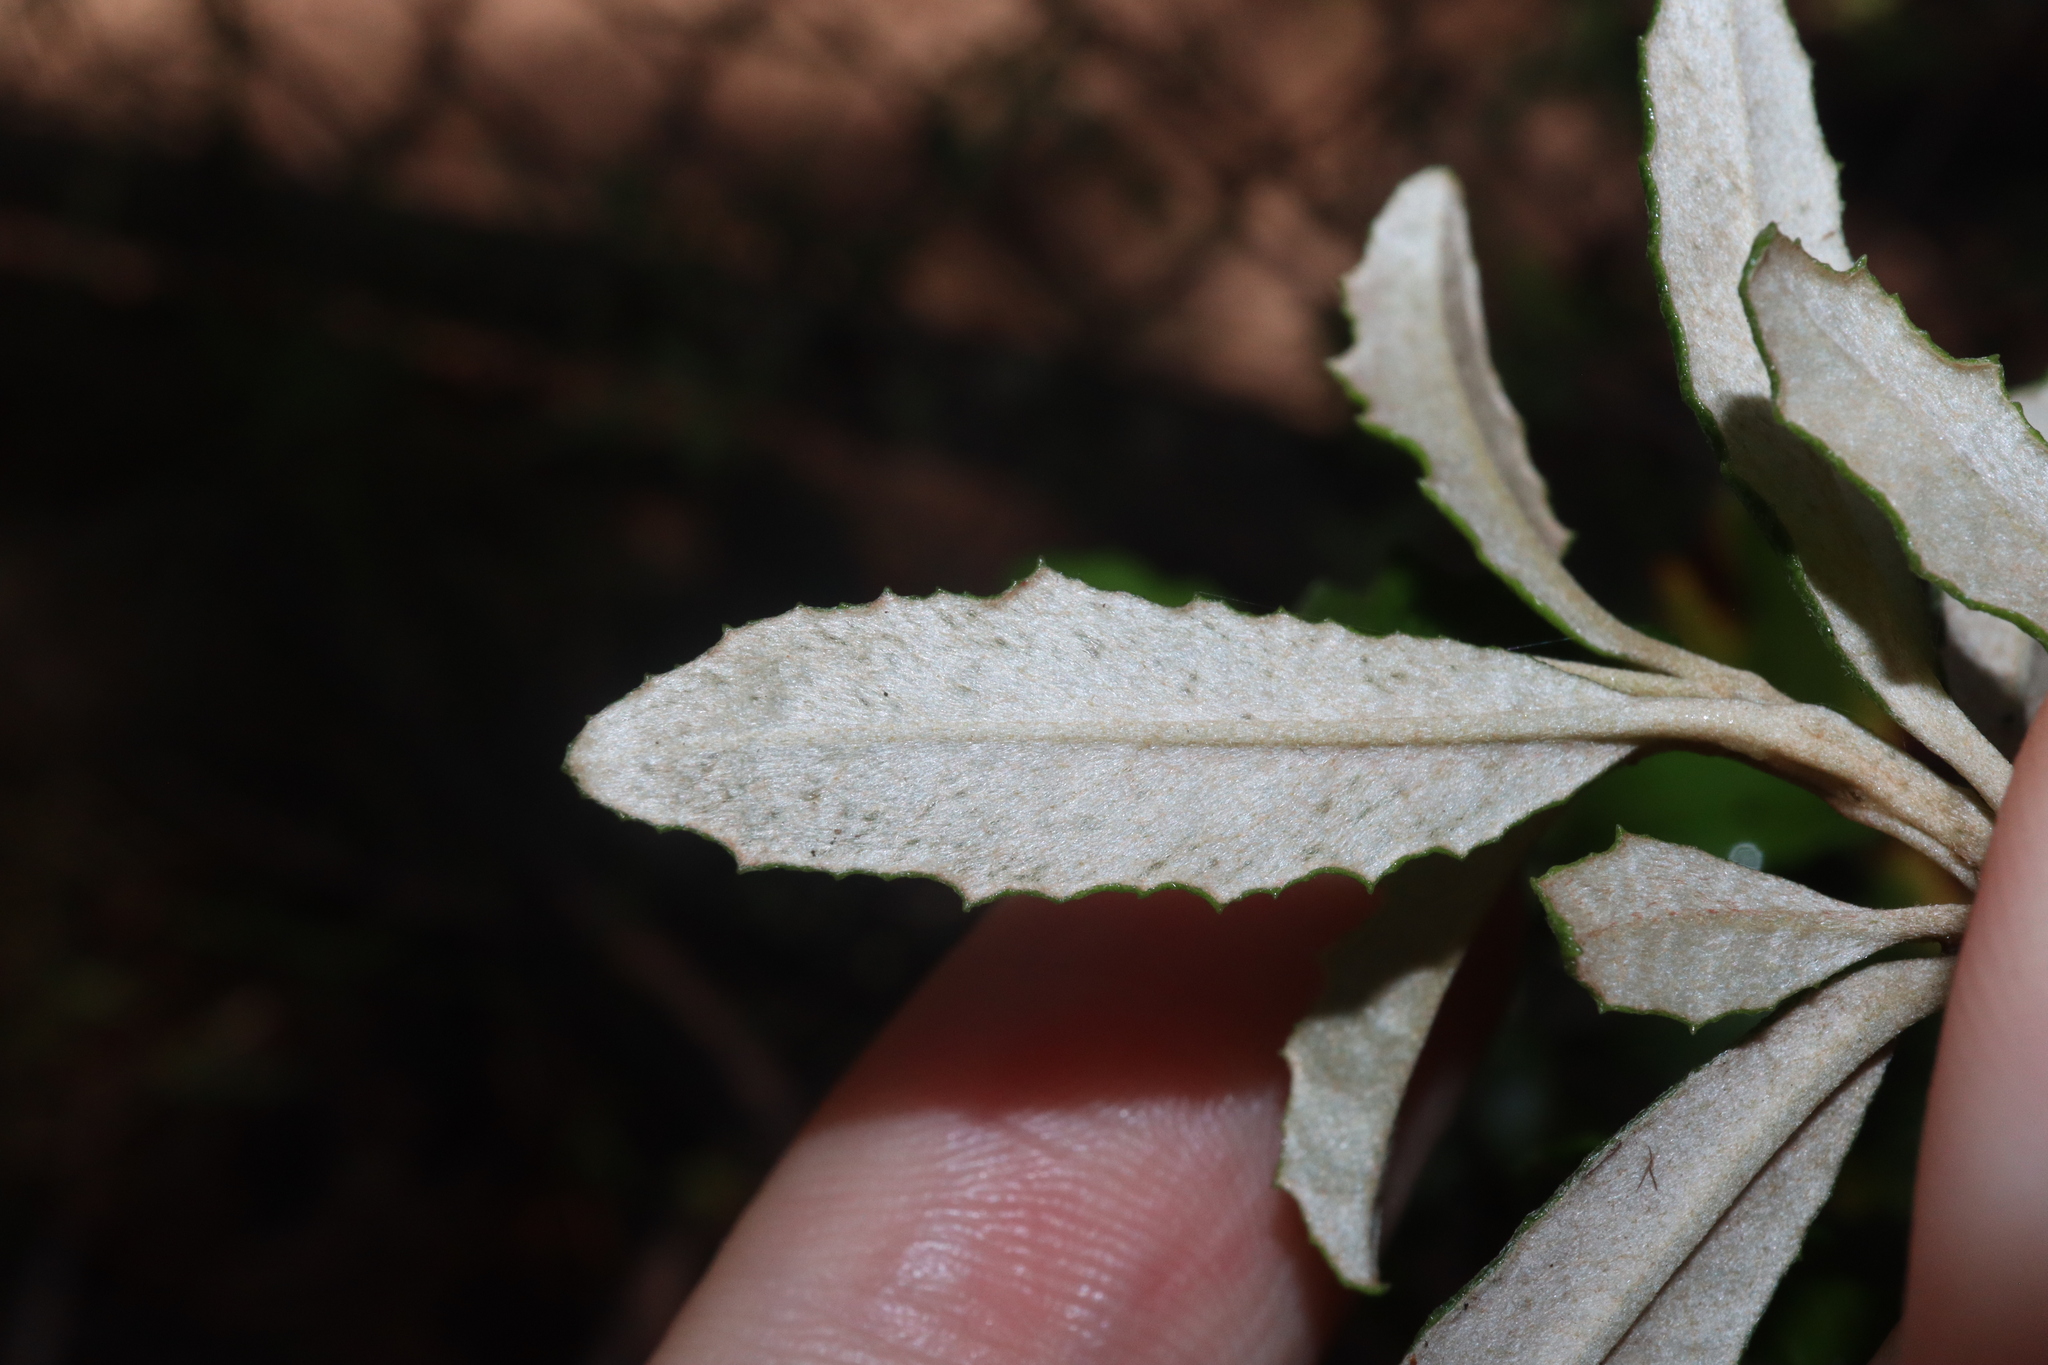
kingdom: Plantae
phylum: Tracheophyta
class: Magnoliopsida
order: Asterales
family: Asteraceae
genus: Olearia
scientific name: Olearia erubescens
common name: Moth daisybush
